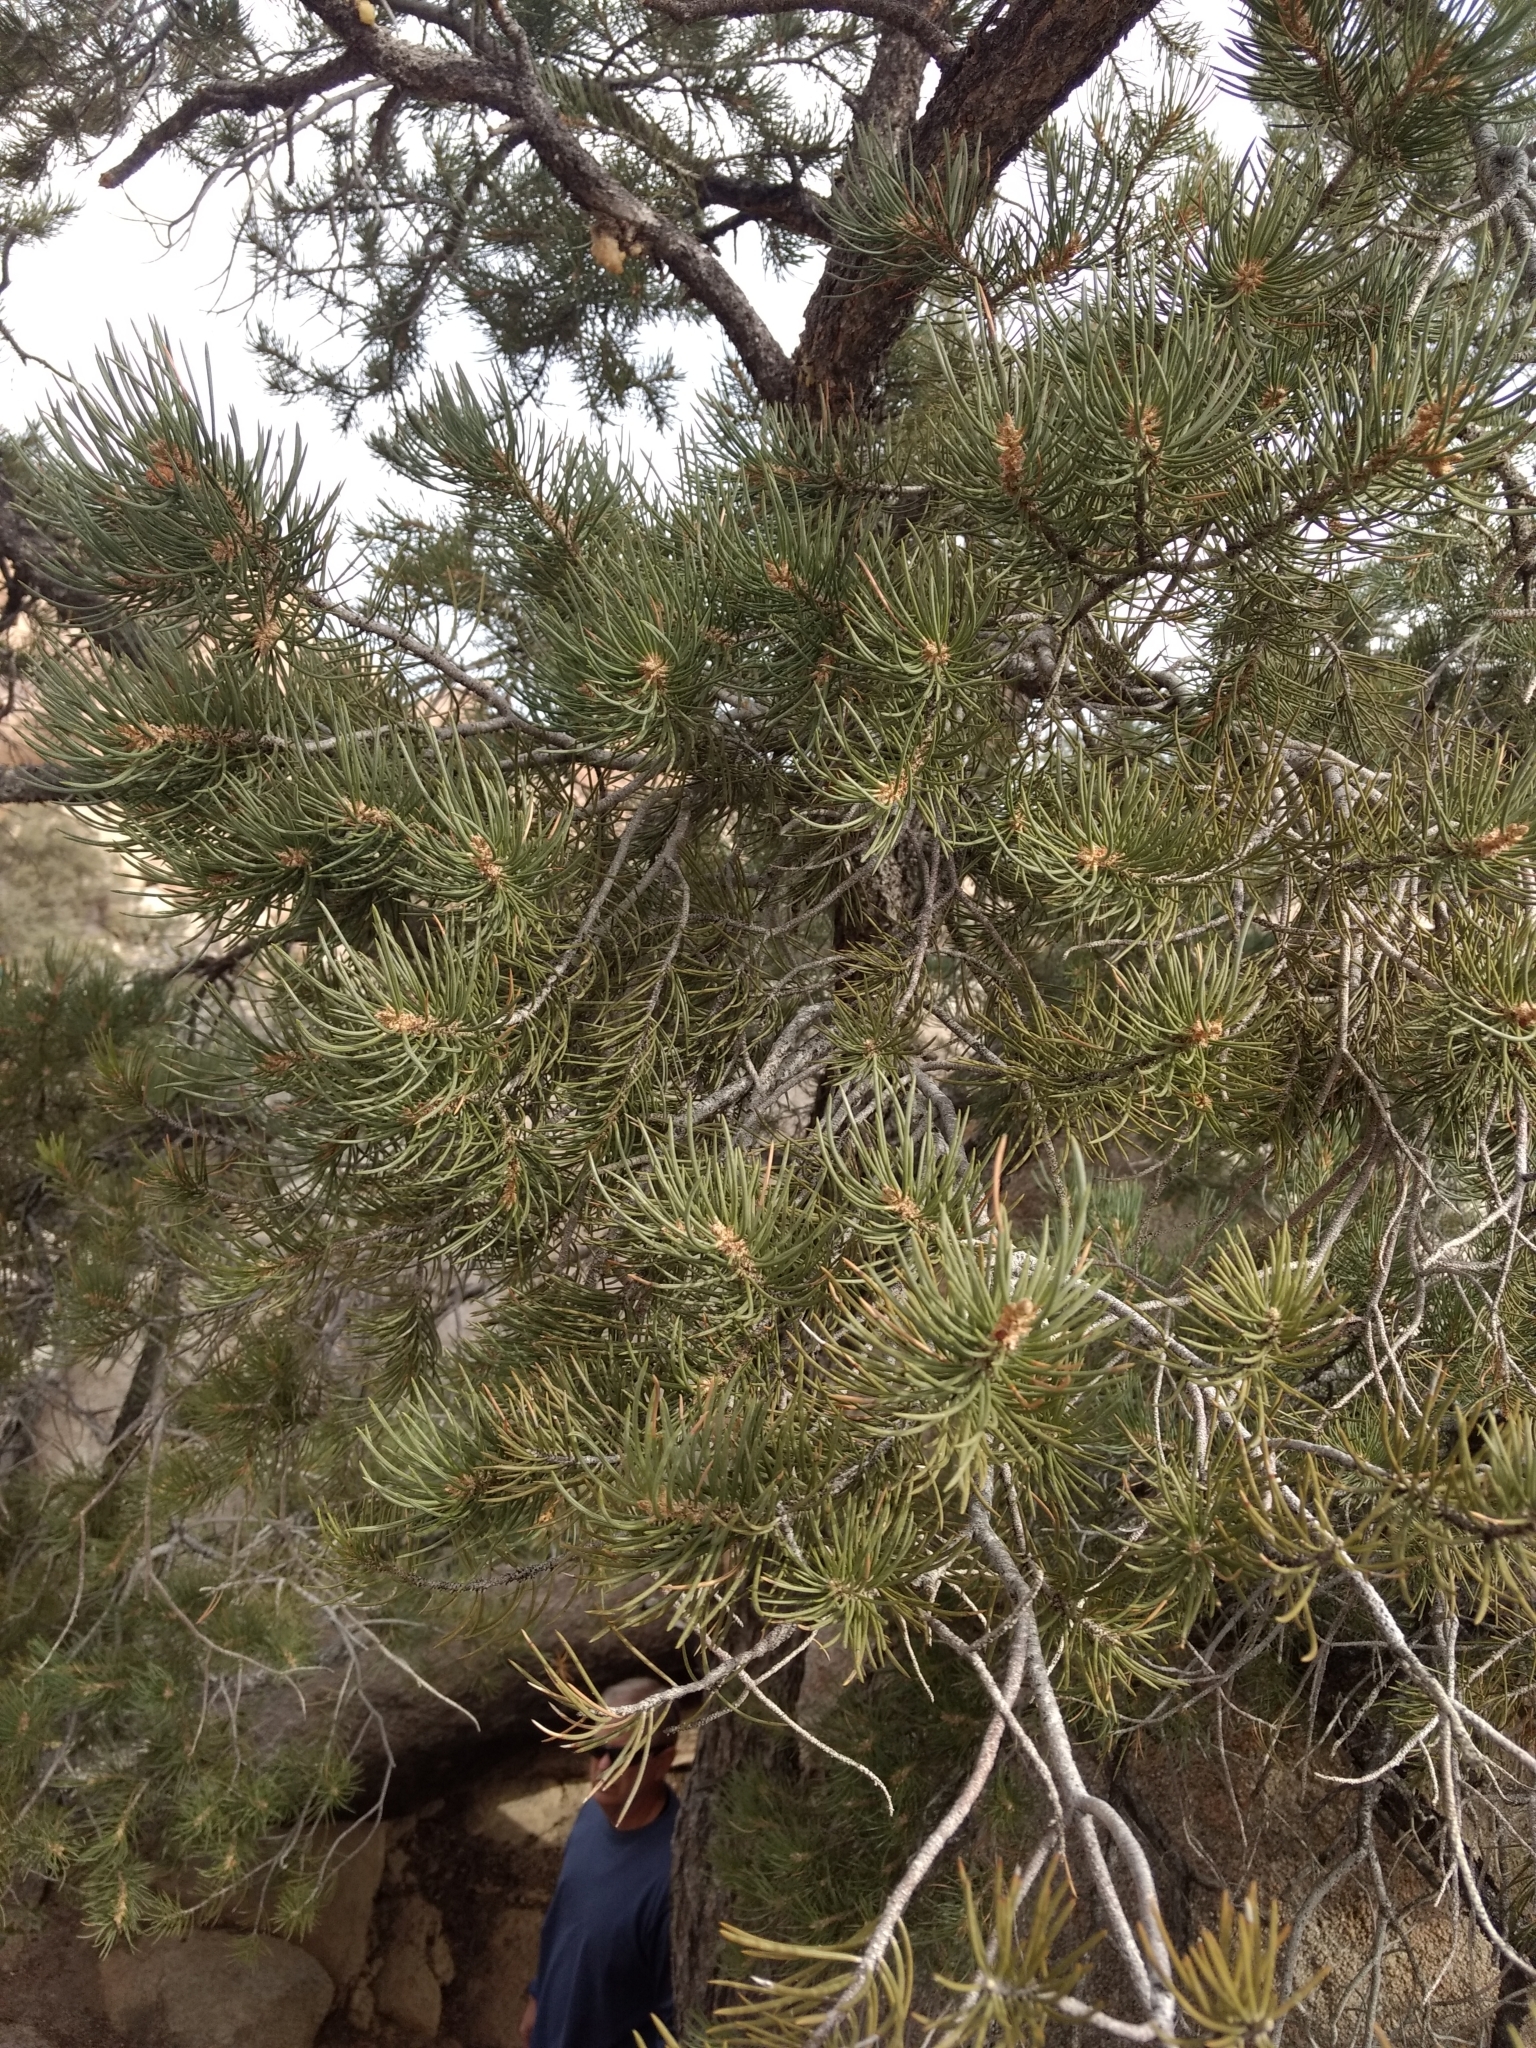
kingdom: Plantae
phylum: Tracheophyta
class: Pinopsida
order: Pinales
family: Pinaceae
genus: Pinus
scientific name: Pinus monophylla
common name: One-leaved nut pine
